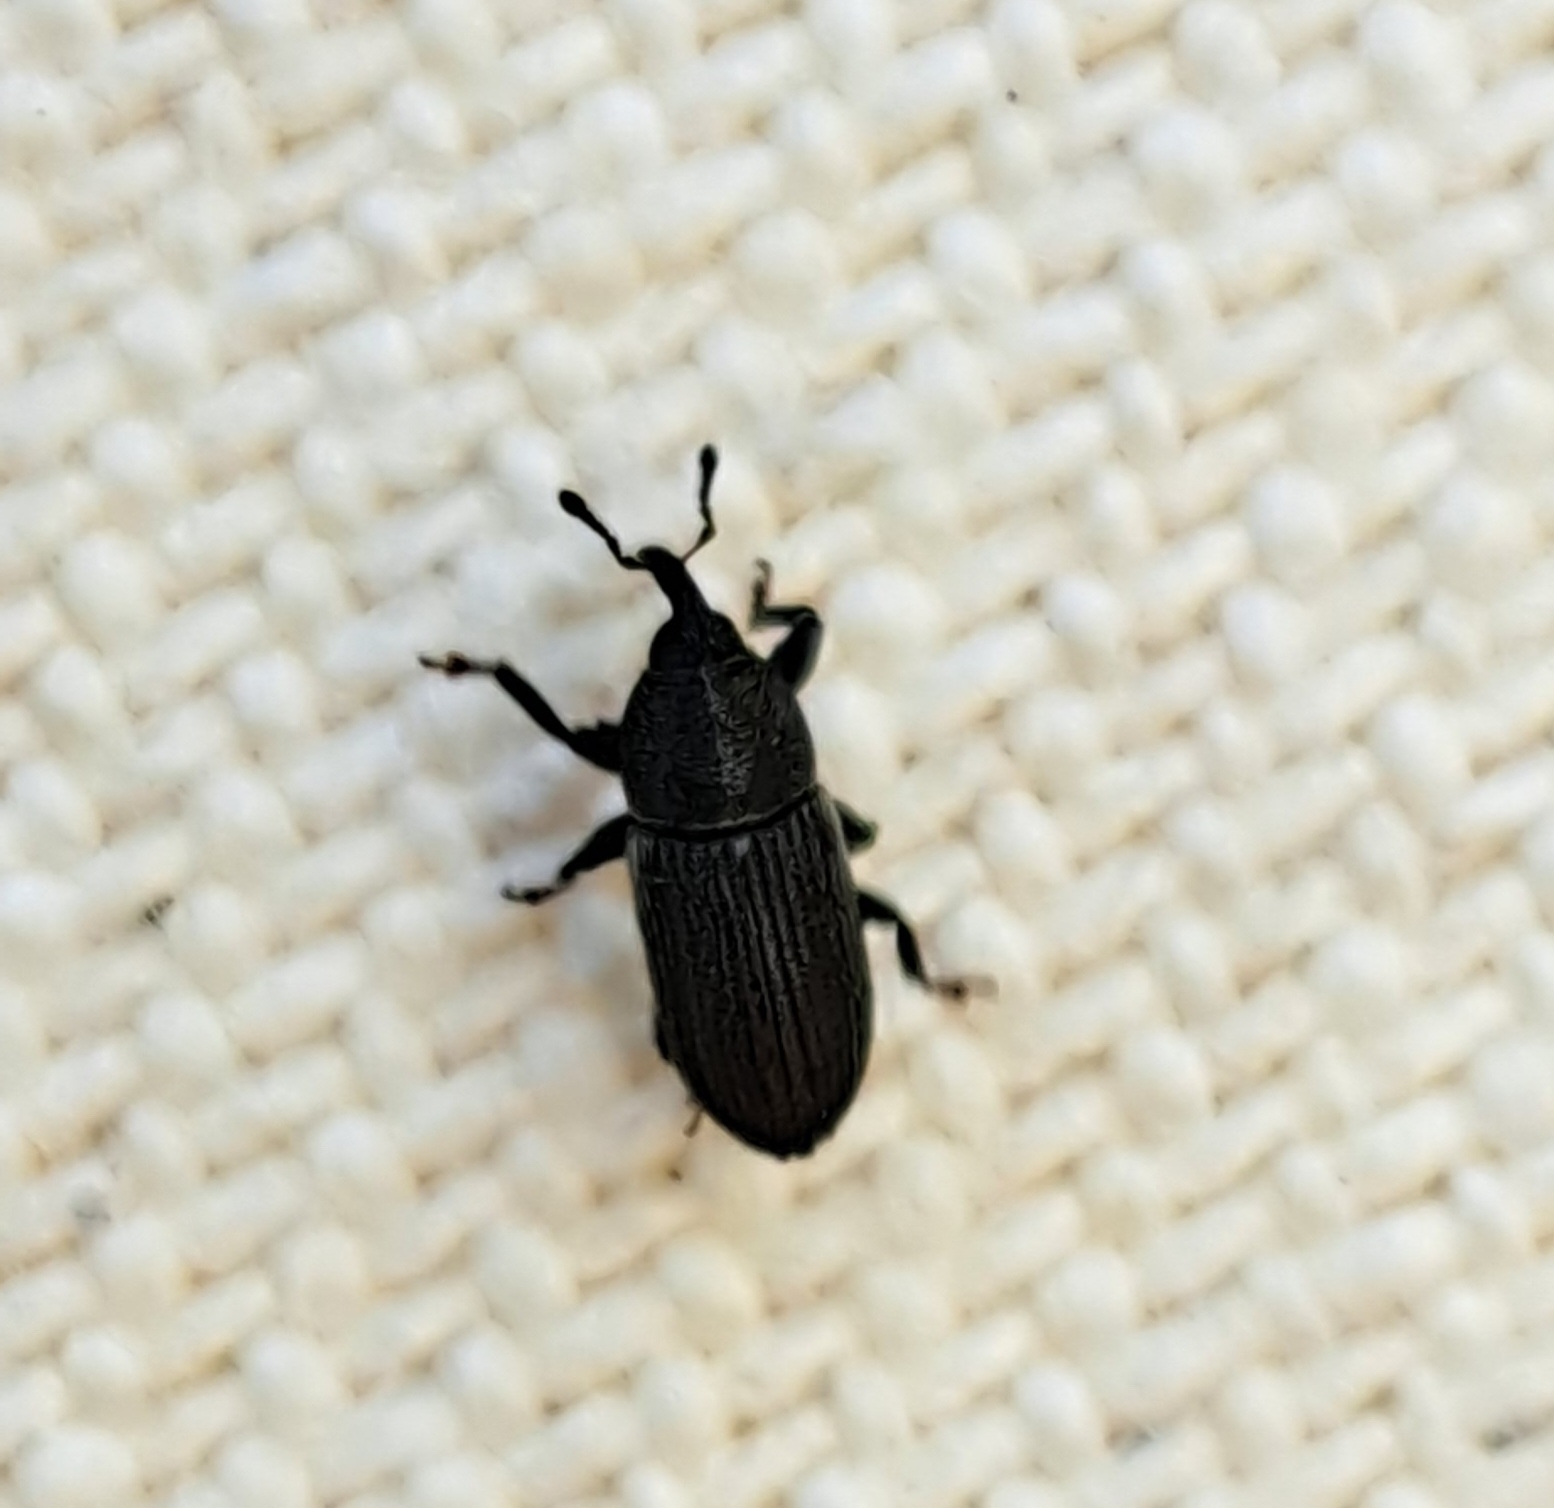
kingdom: Animalia
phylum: Arthropoda
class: Insecta
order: Coleoptera
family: Curculionidae
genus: Mecinus
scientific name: Mecinus pyraster
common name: Weevil
